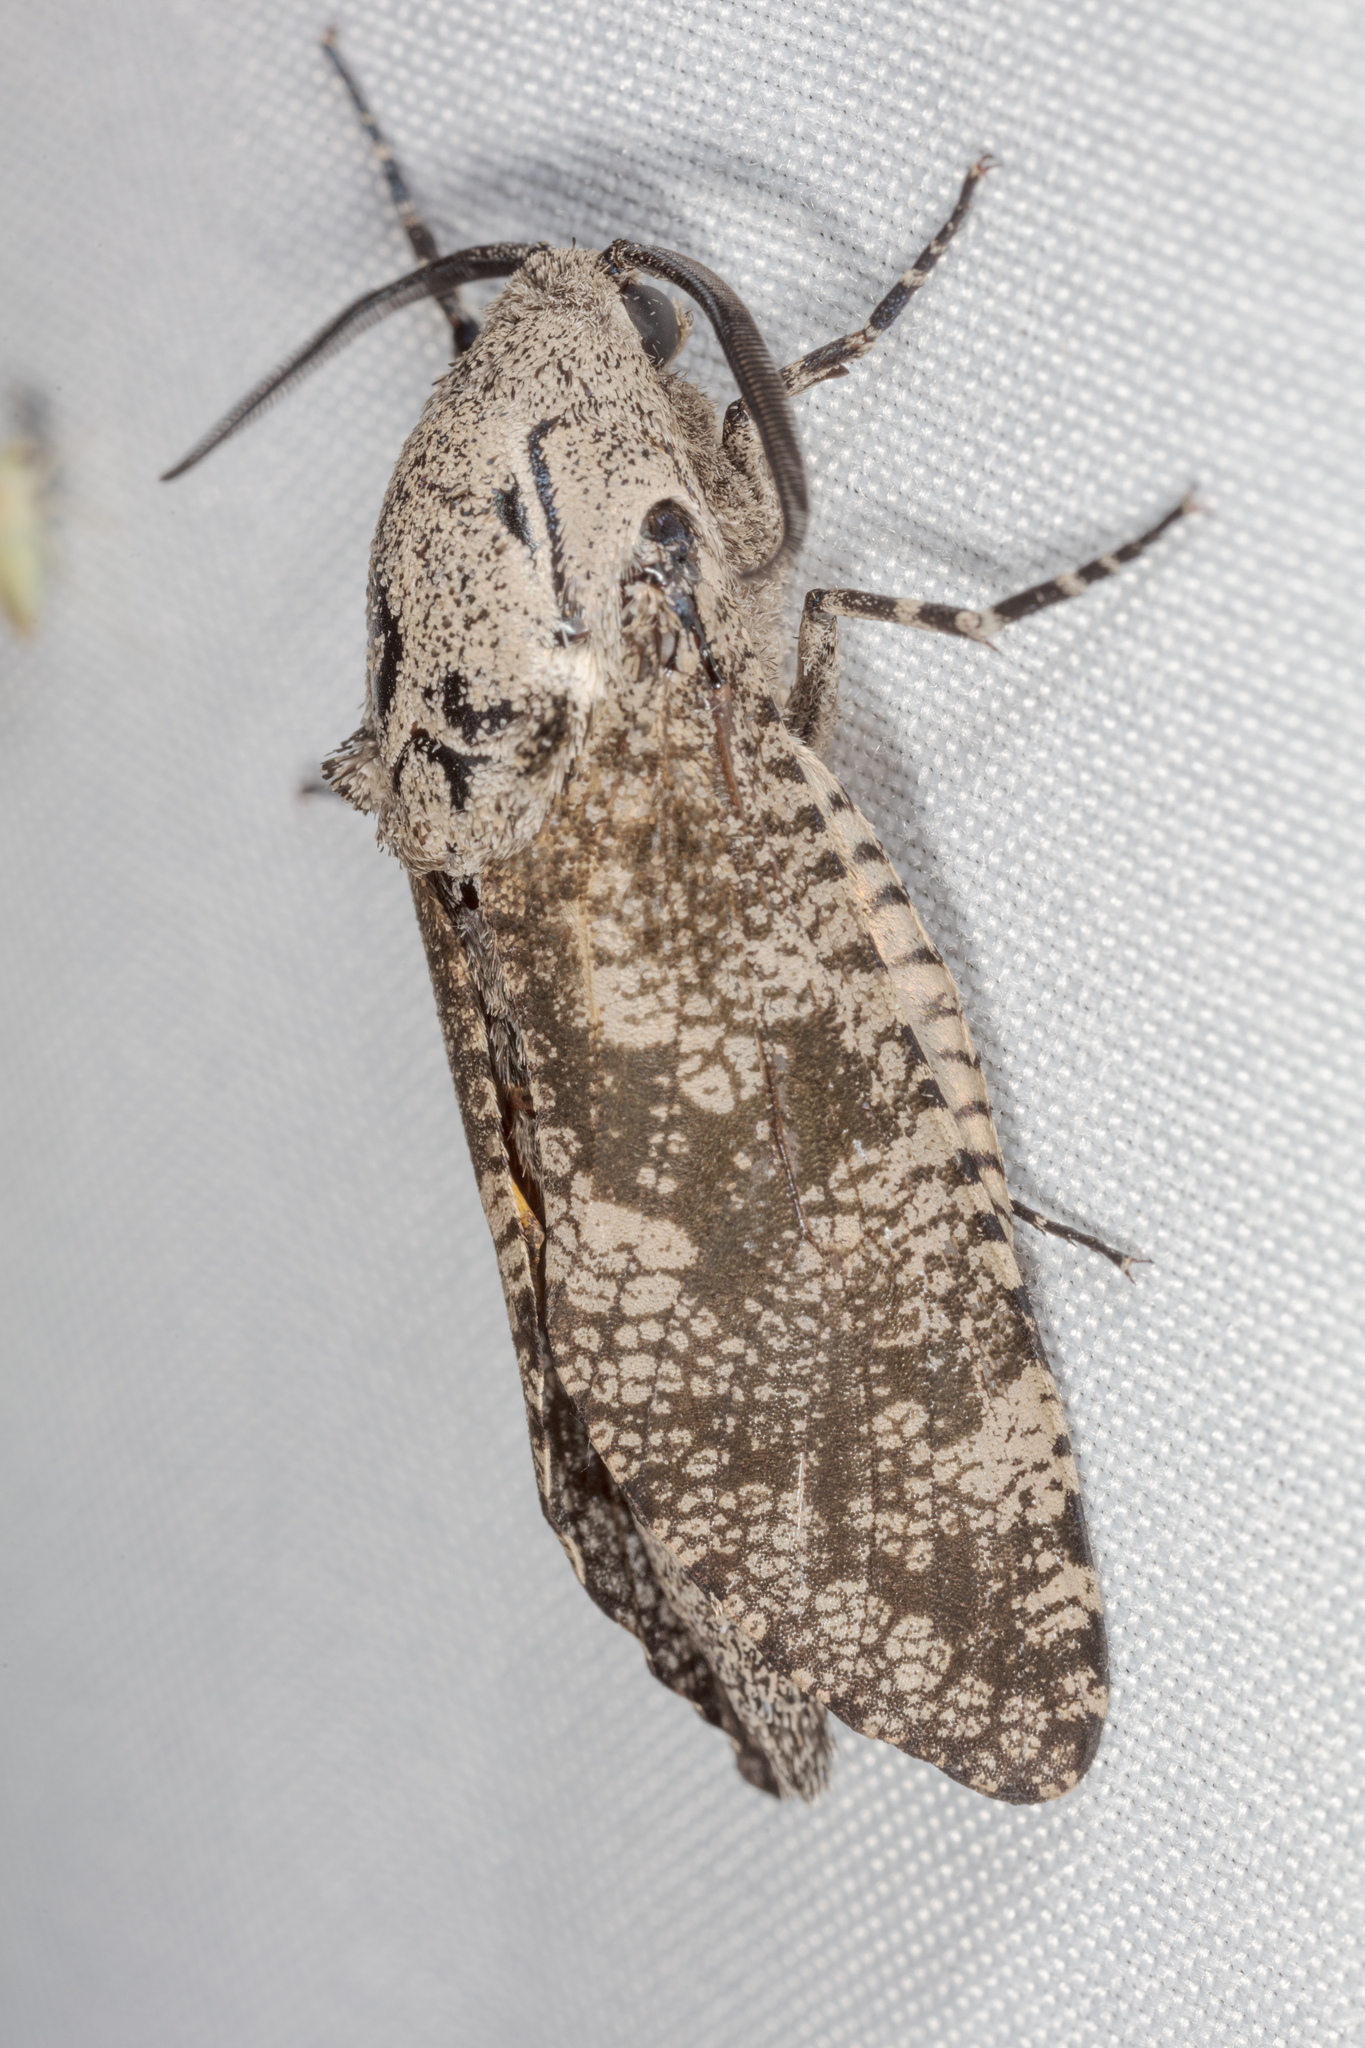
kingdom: Animalia
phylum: Arthropoda
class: Insecta
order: Lepidoptera
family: Cossidae
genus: Prionoxystus
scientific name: Prionoxystus robiniae
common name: Carpenterworm
